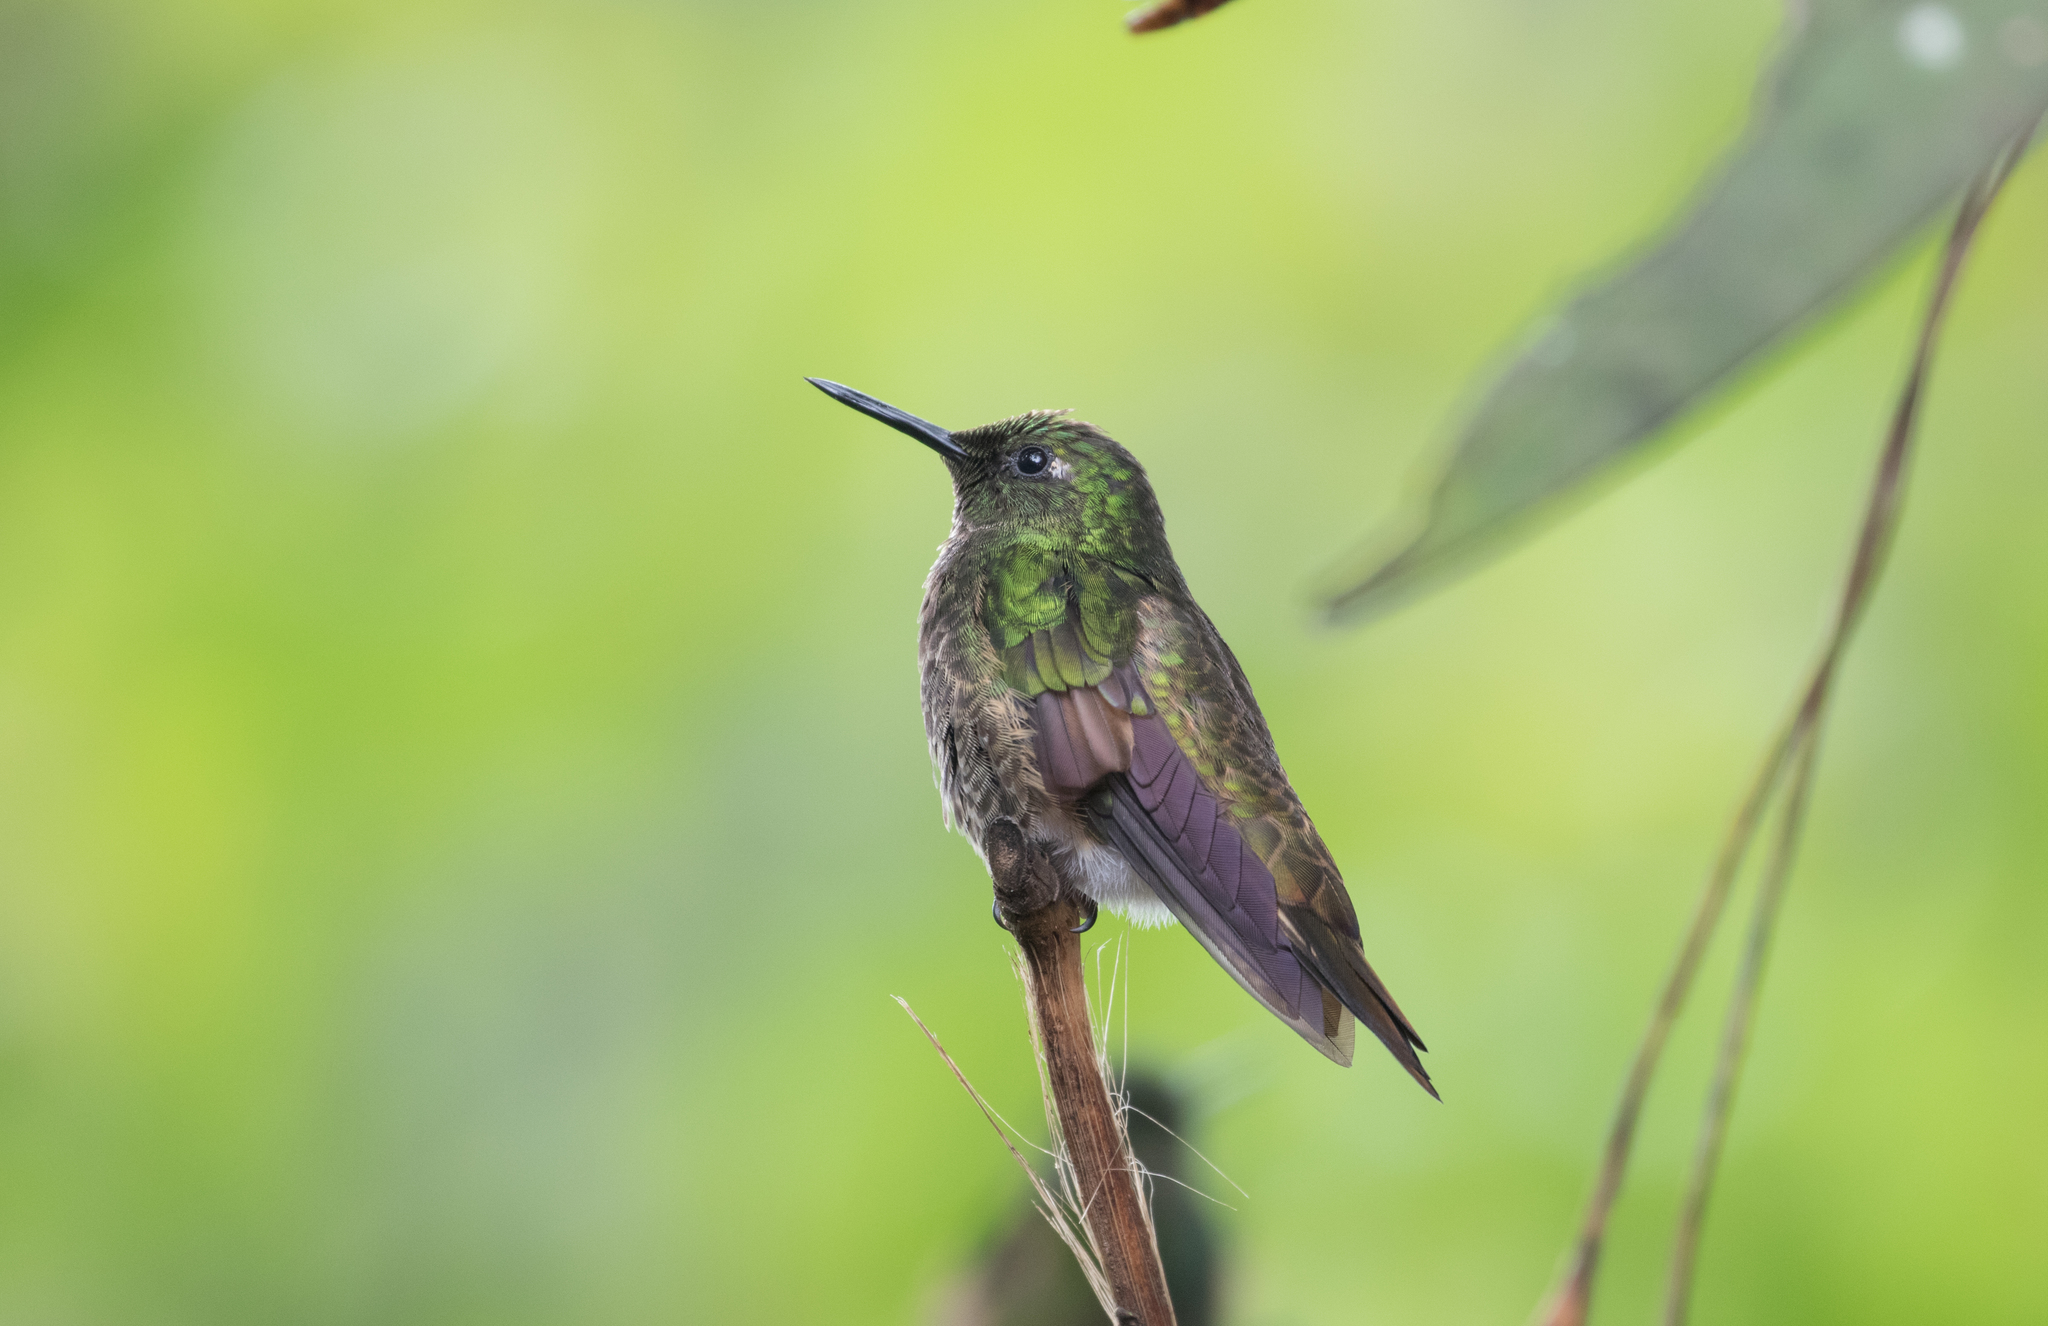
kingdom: Animalia
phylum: Chordata
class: Aves
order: Apodiformes
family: Trochilidae
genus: Boissonneaua
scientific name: Boissonneaua flavescens
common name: Buff-tailed coronet
